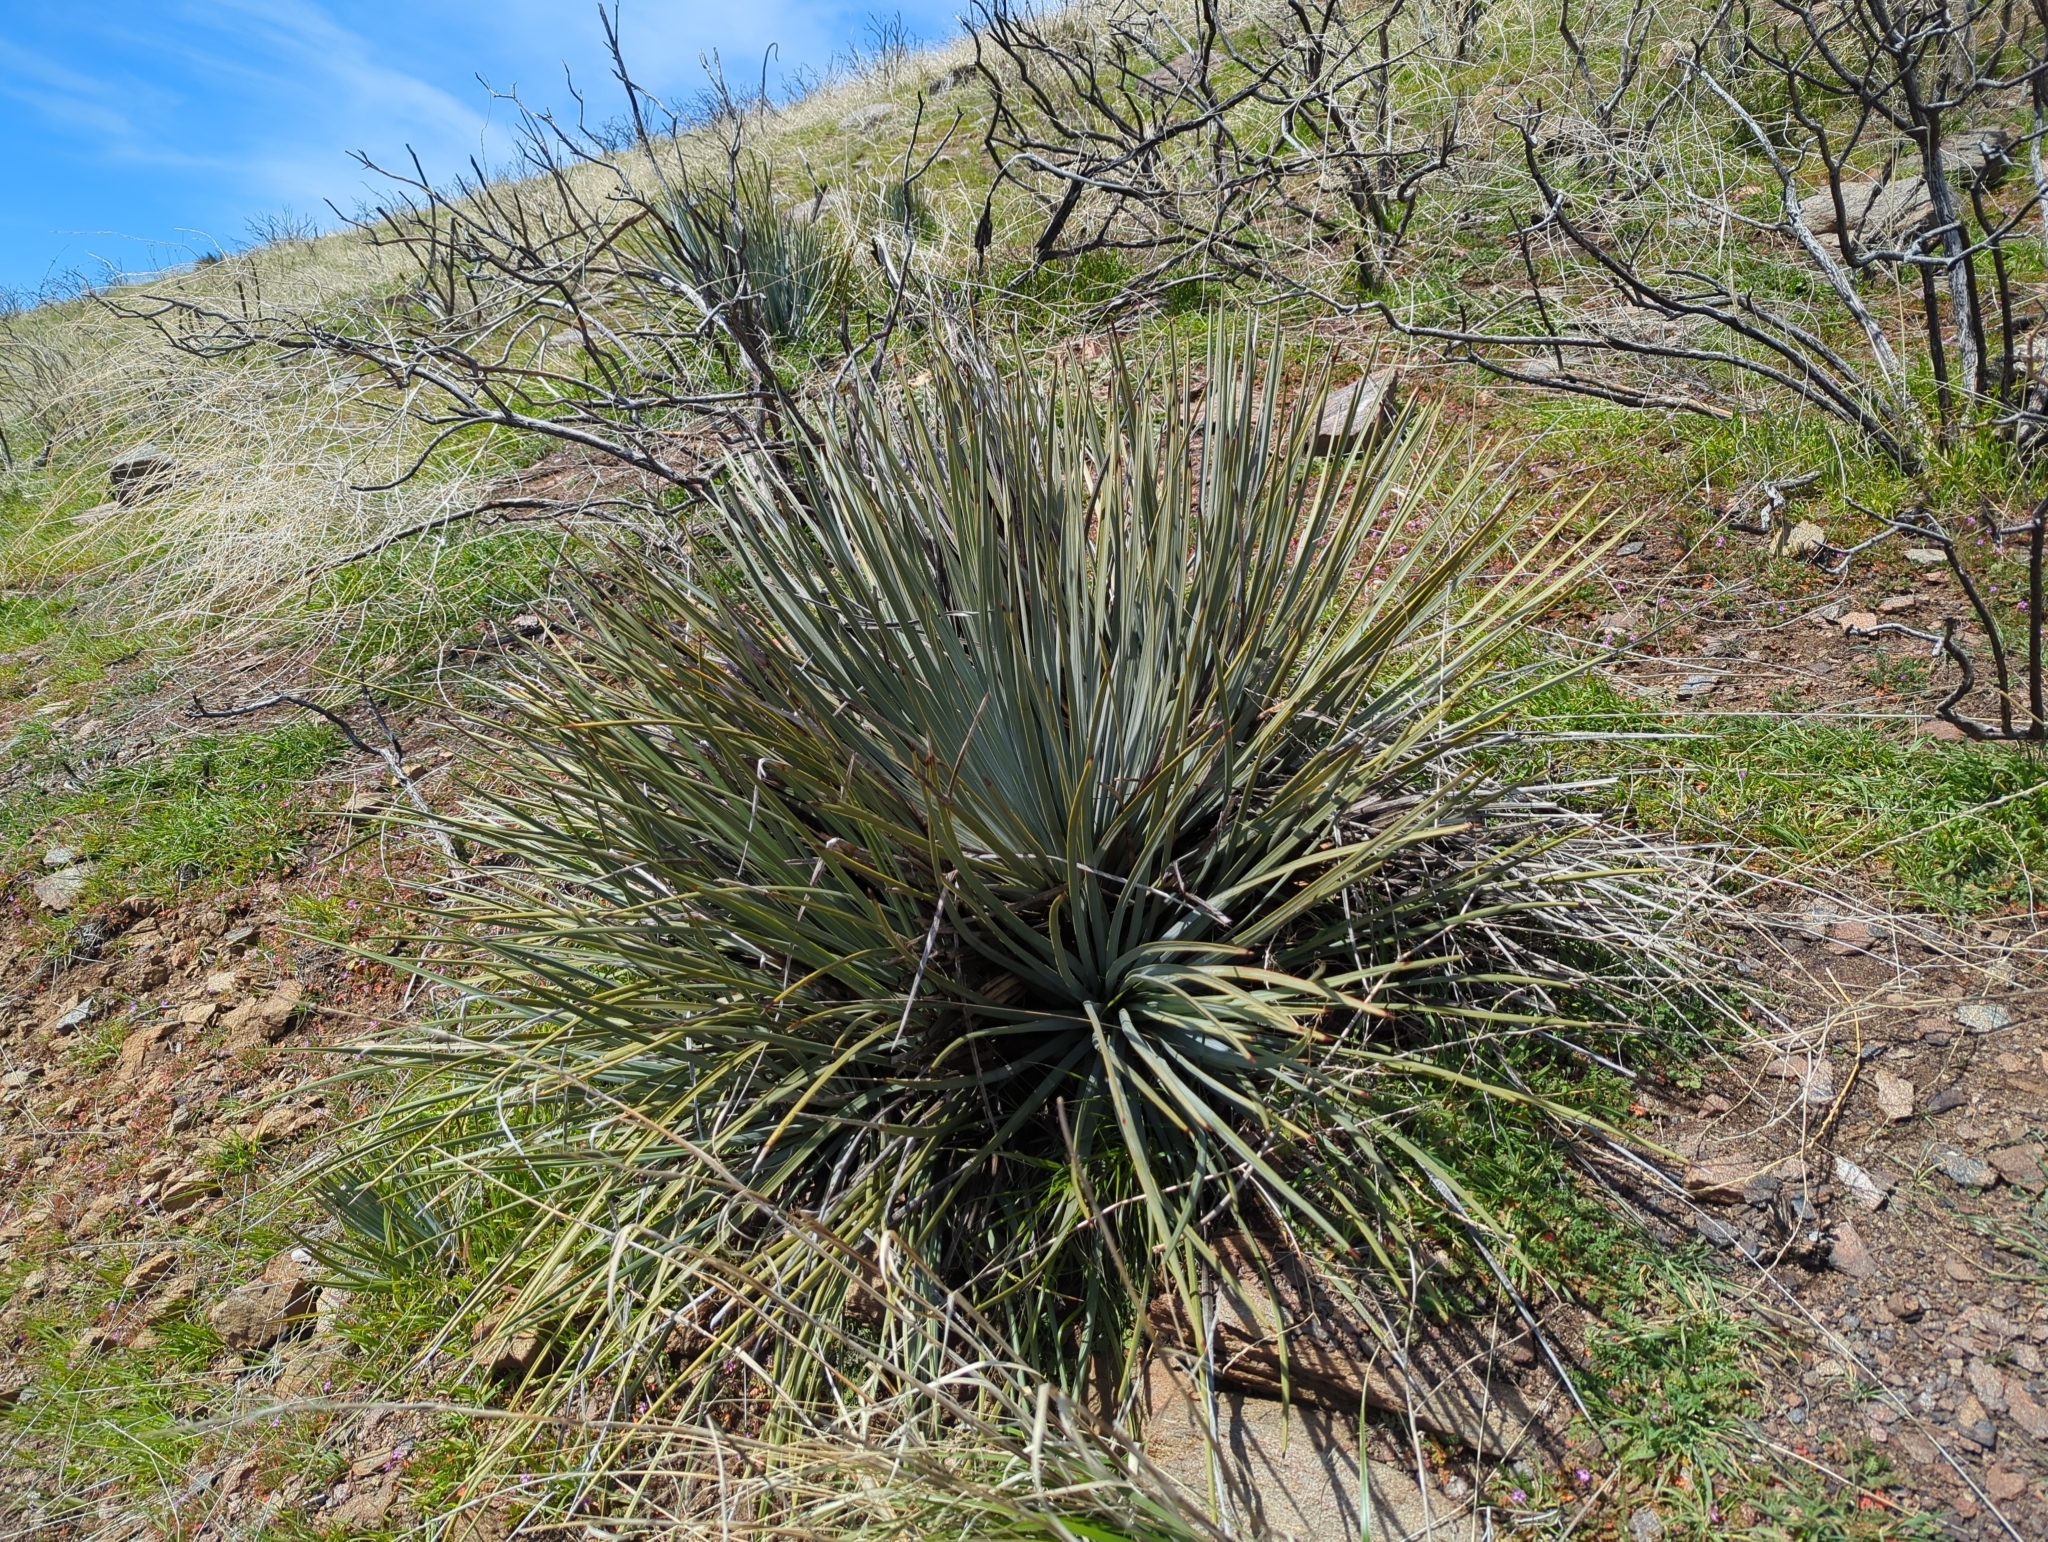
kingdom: Plantae
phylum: Tracheophyta
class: Liliopsida
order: Asparagales
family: Asparagaceae
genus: Hesperoyucca
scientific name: Hesperoyucca whipplei
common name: Our lord's-candle
